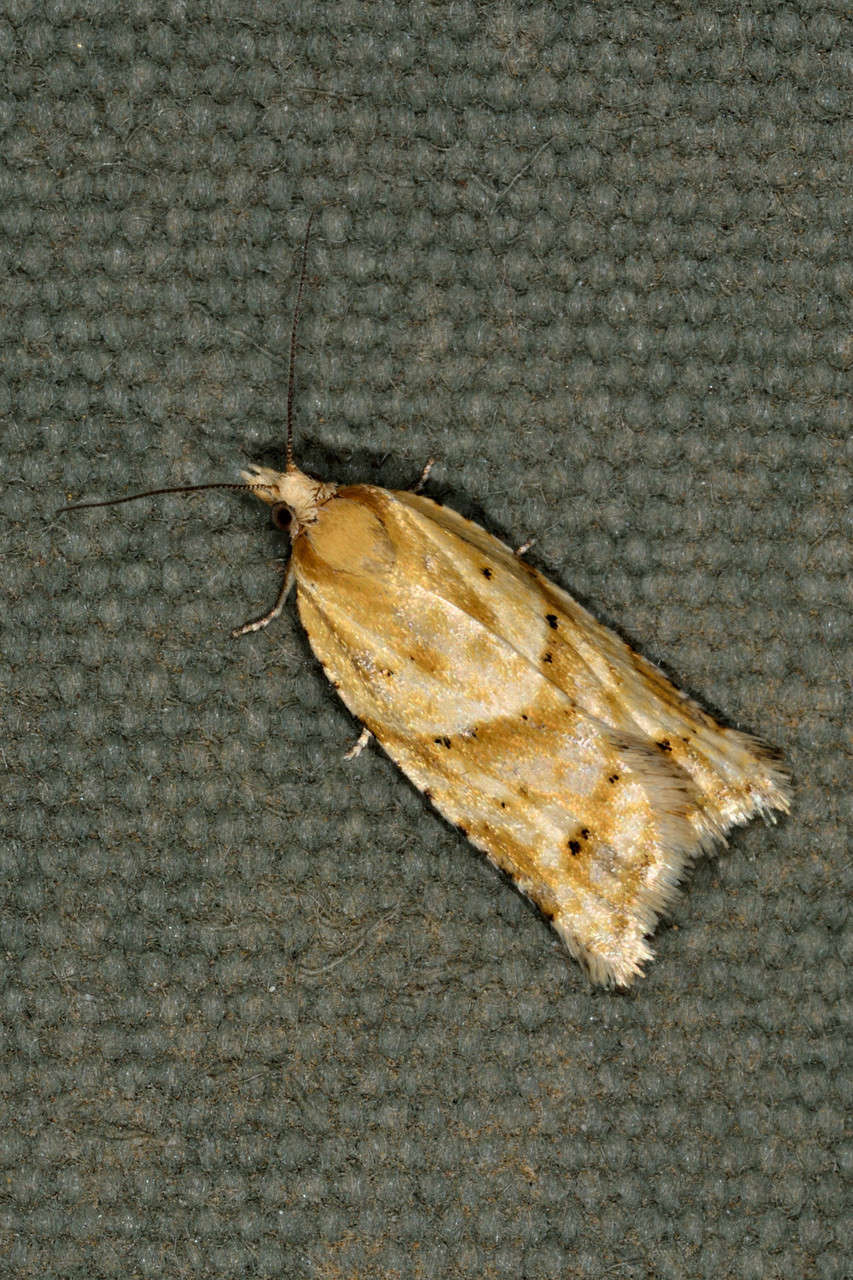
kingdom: Animalia
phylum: Arthropoda
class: Insecta
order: Lepidoptera
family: Tortricidae
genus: Clepsis
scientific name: Clepsis
